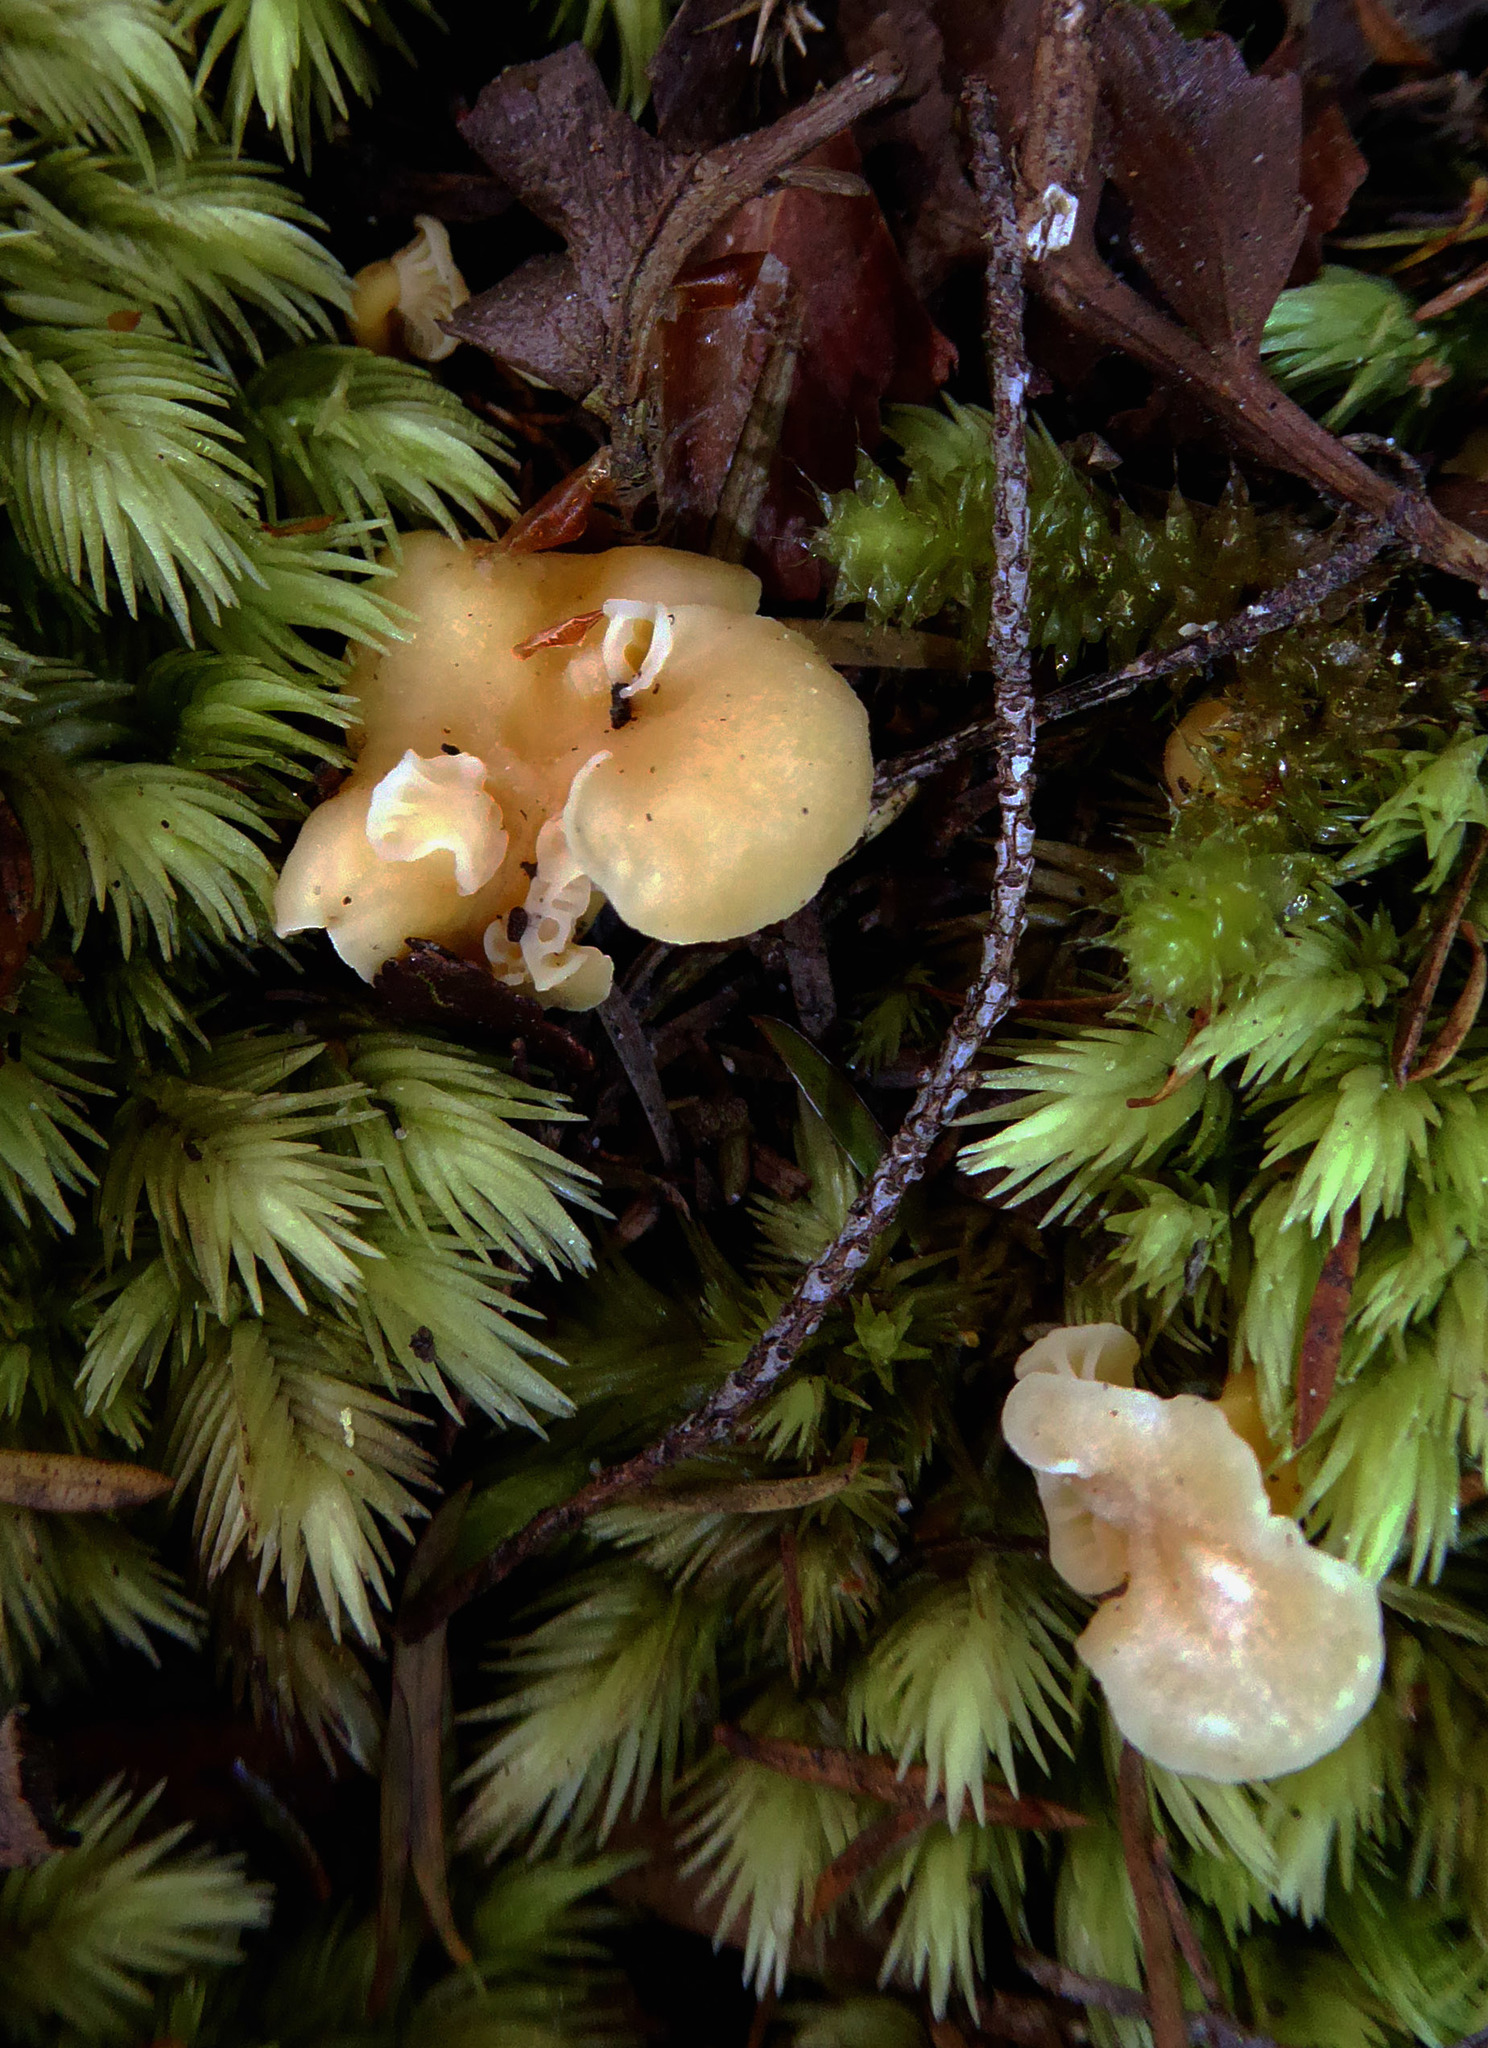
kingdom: Fungi
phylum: Basidiomycota
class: Agaricomycetes
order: Cantharellales
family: Hydnaceae
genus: Cantharellus
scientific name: Cantharellus wellingtonensis
